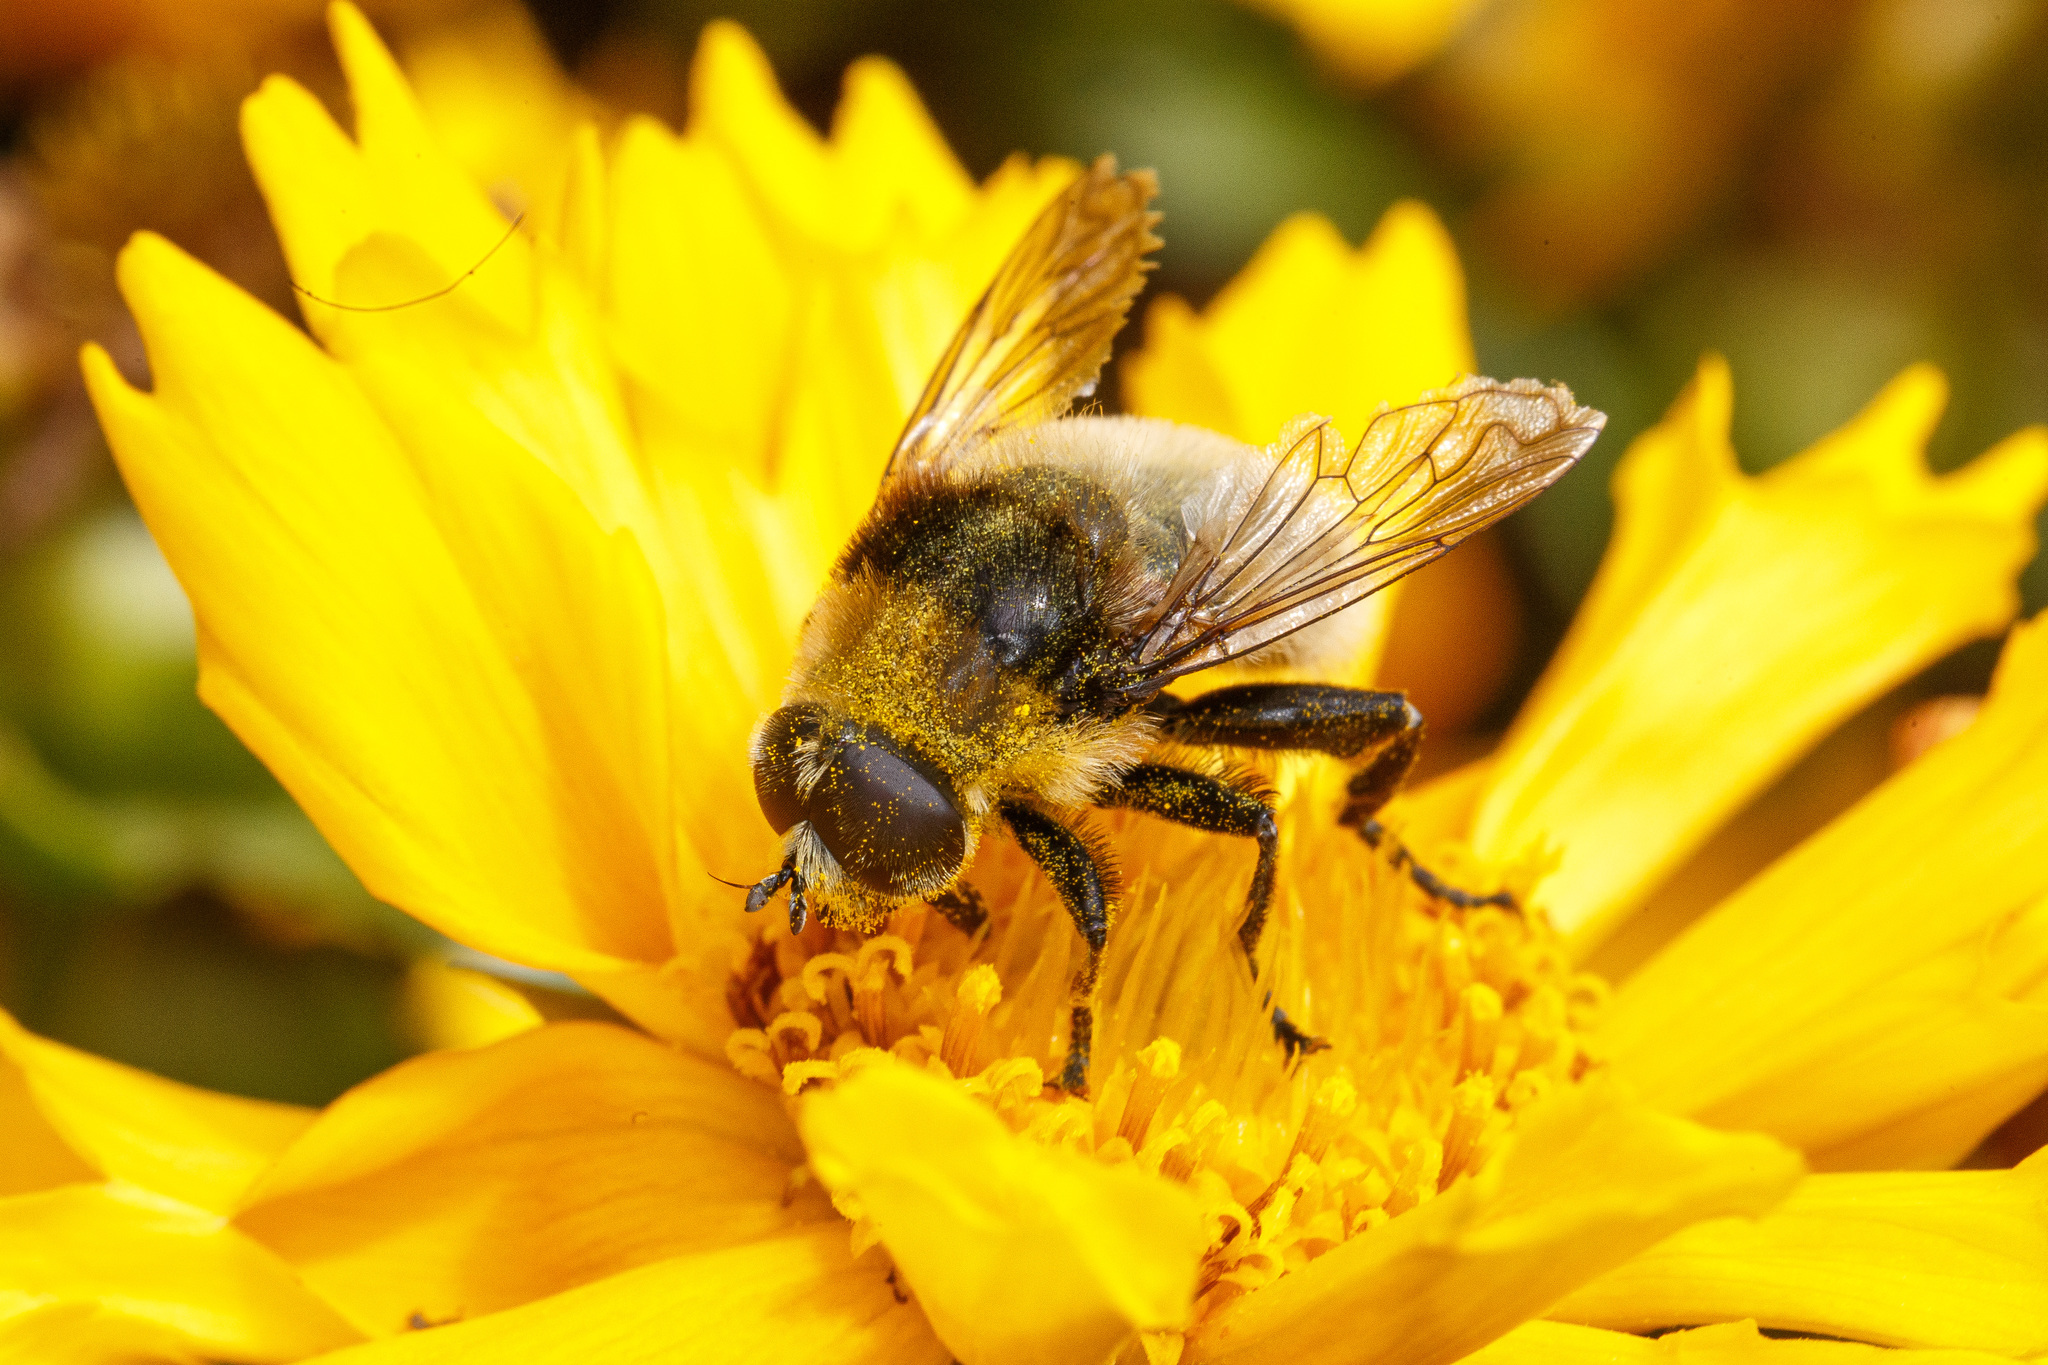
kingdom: Animalia
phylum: Arthropoda
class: Insecta
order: Diptera
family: Syrphidae
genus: Merodon
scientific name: Merodon equestris
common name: Greater bulb-fly
